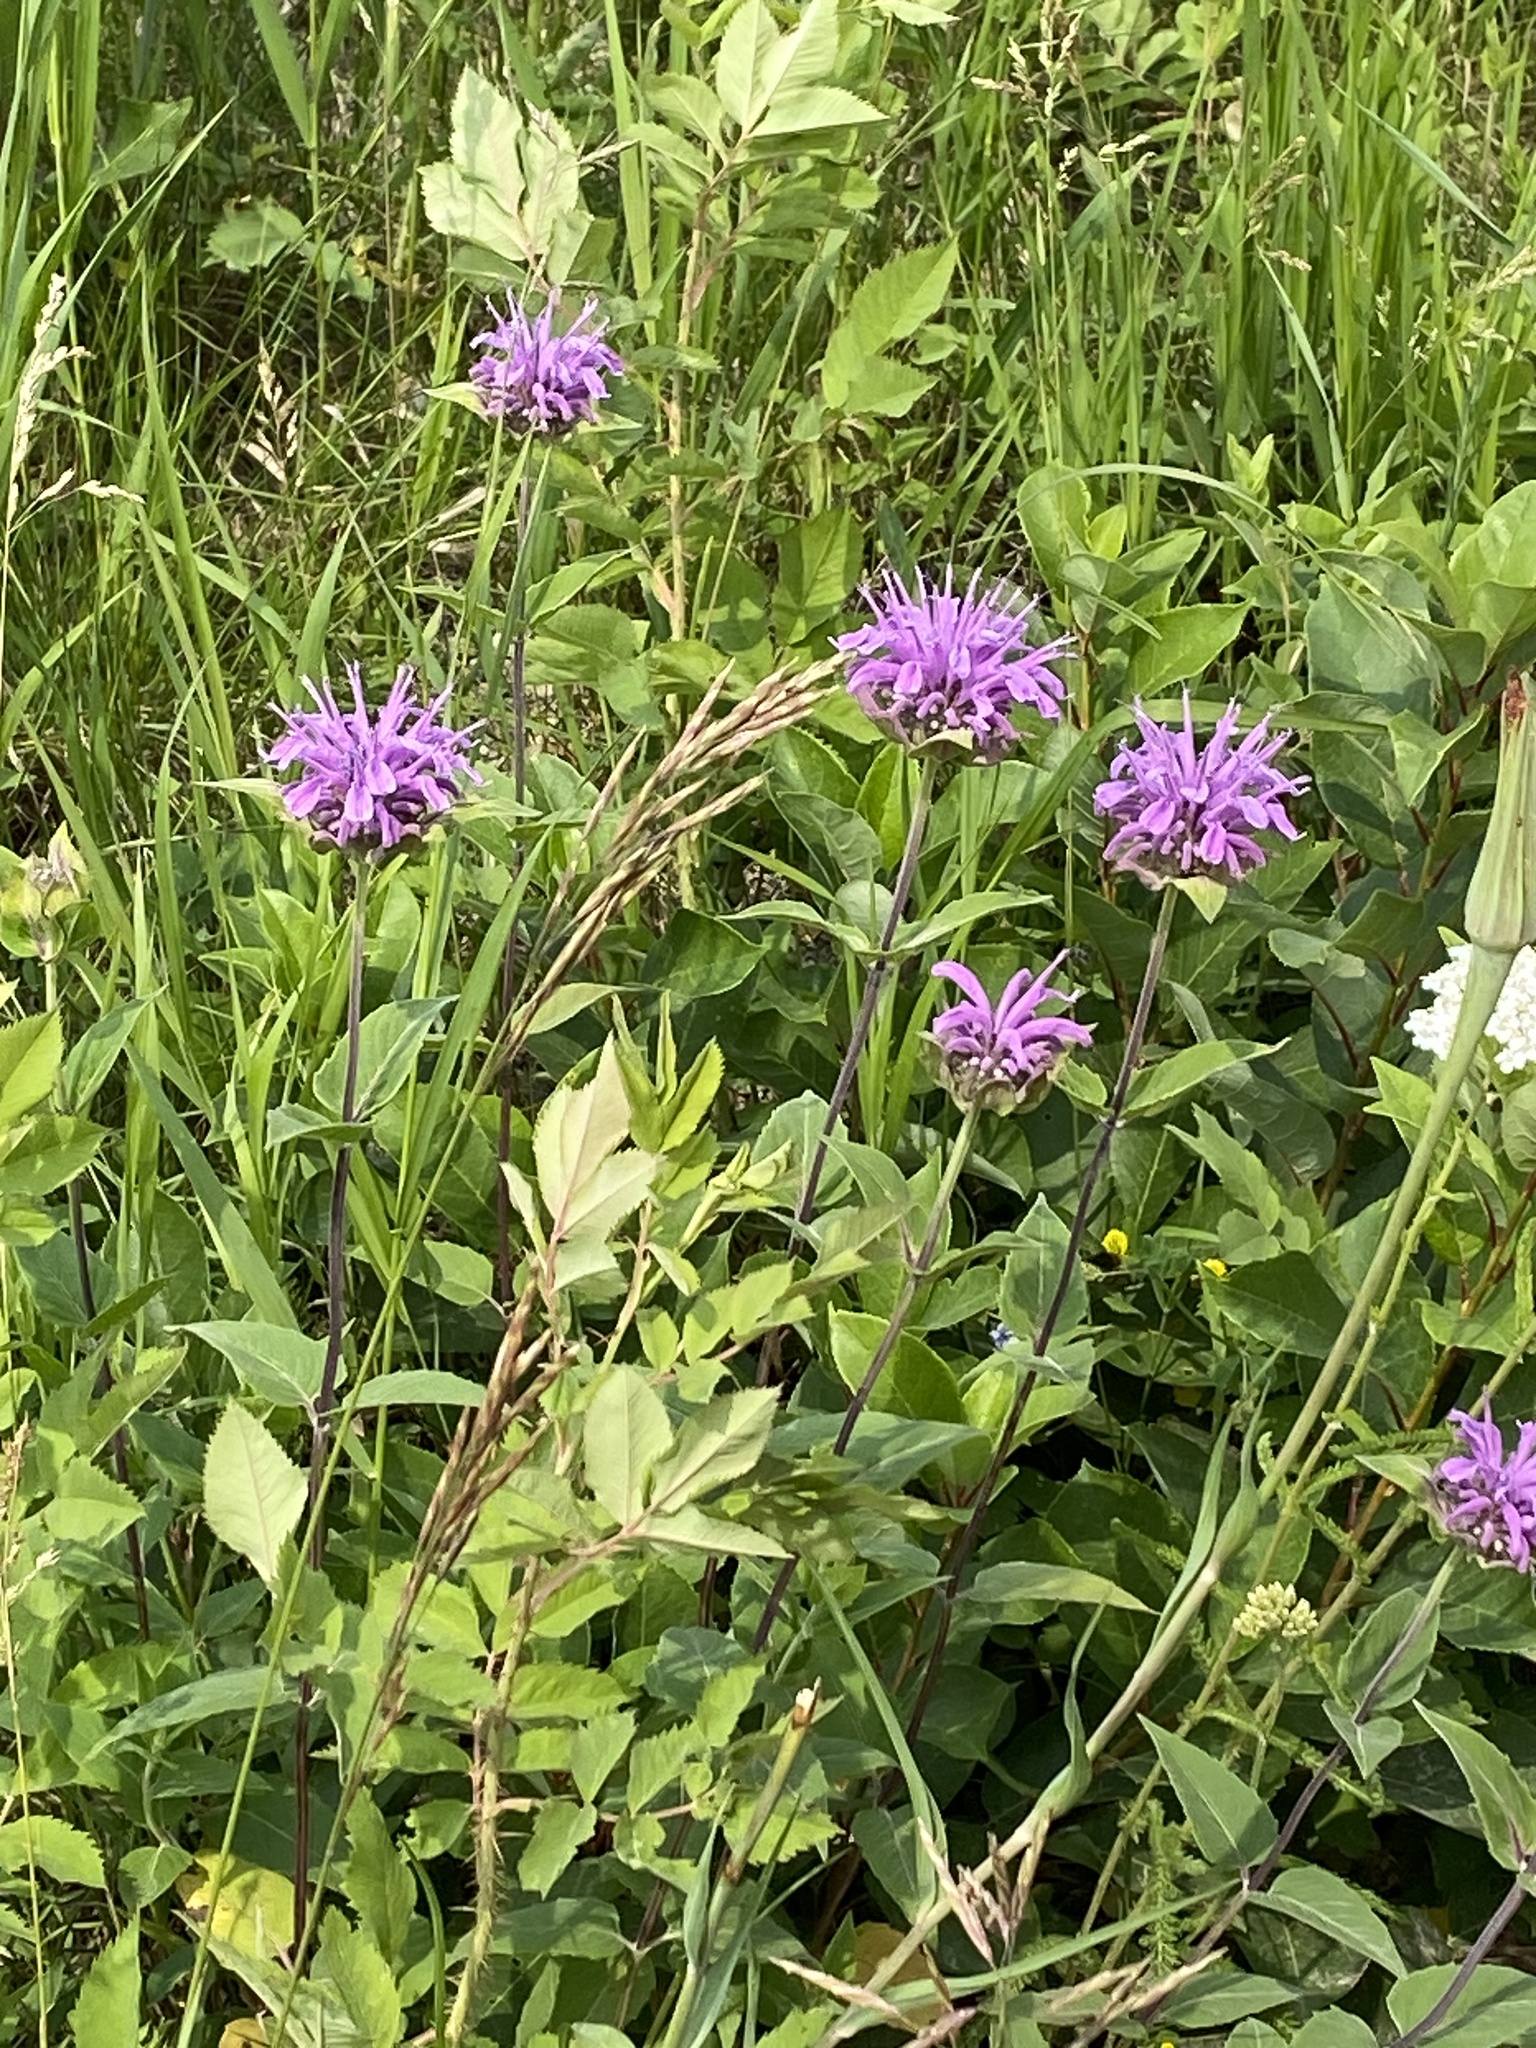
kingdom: Plantae
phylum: Tracheophyta
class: Magnoliopsida
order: Lamiales
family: Lamiaceae
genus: Monarda
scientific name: Monarda fistulosa
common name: Purple beebalm
